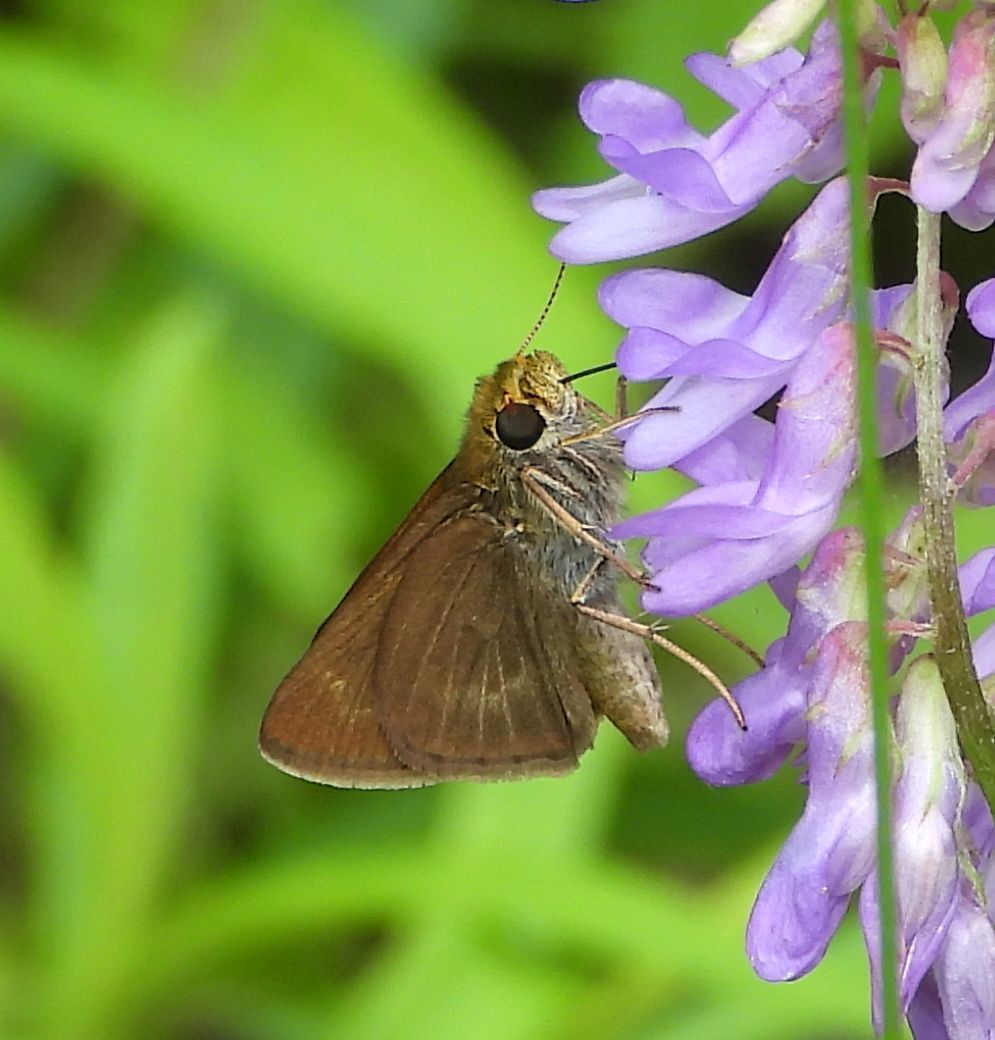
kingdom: Animalia
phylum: Arthropoda
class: Insecta
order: Lepidoptera
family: Hesperiidae
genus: Euphyes
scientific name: Euphyes vestris
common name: Dun skipper
